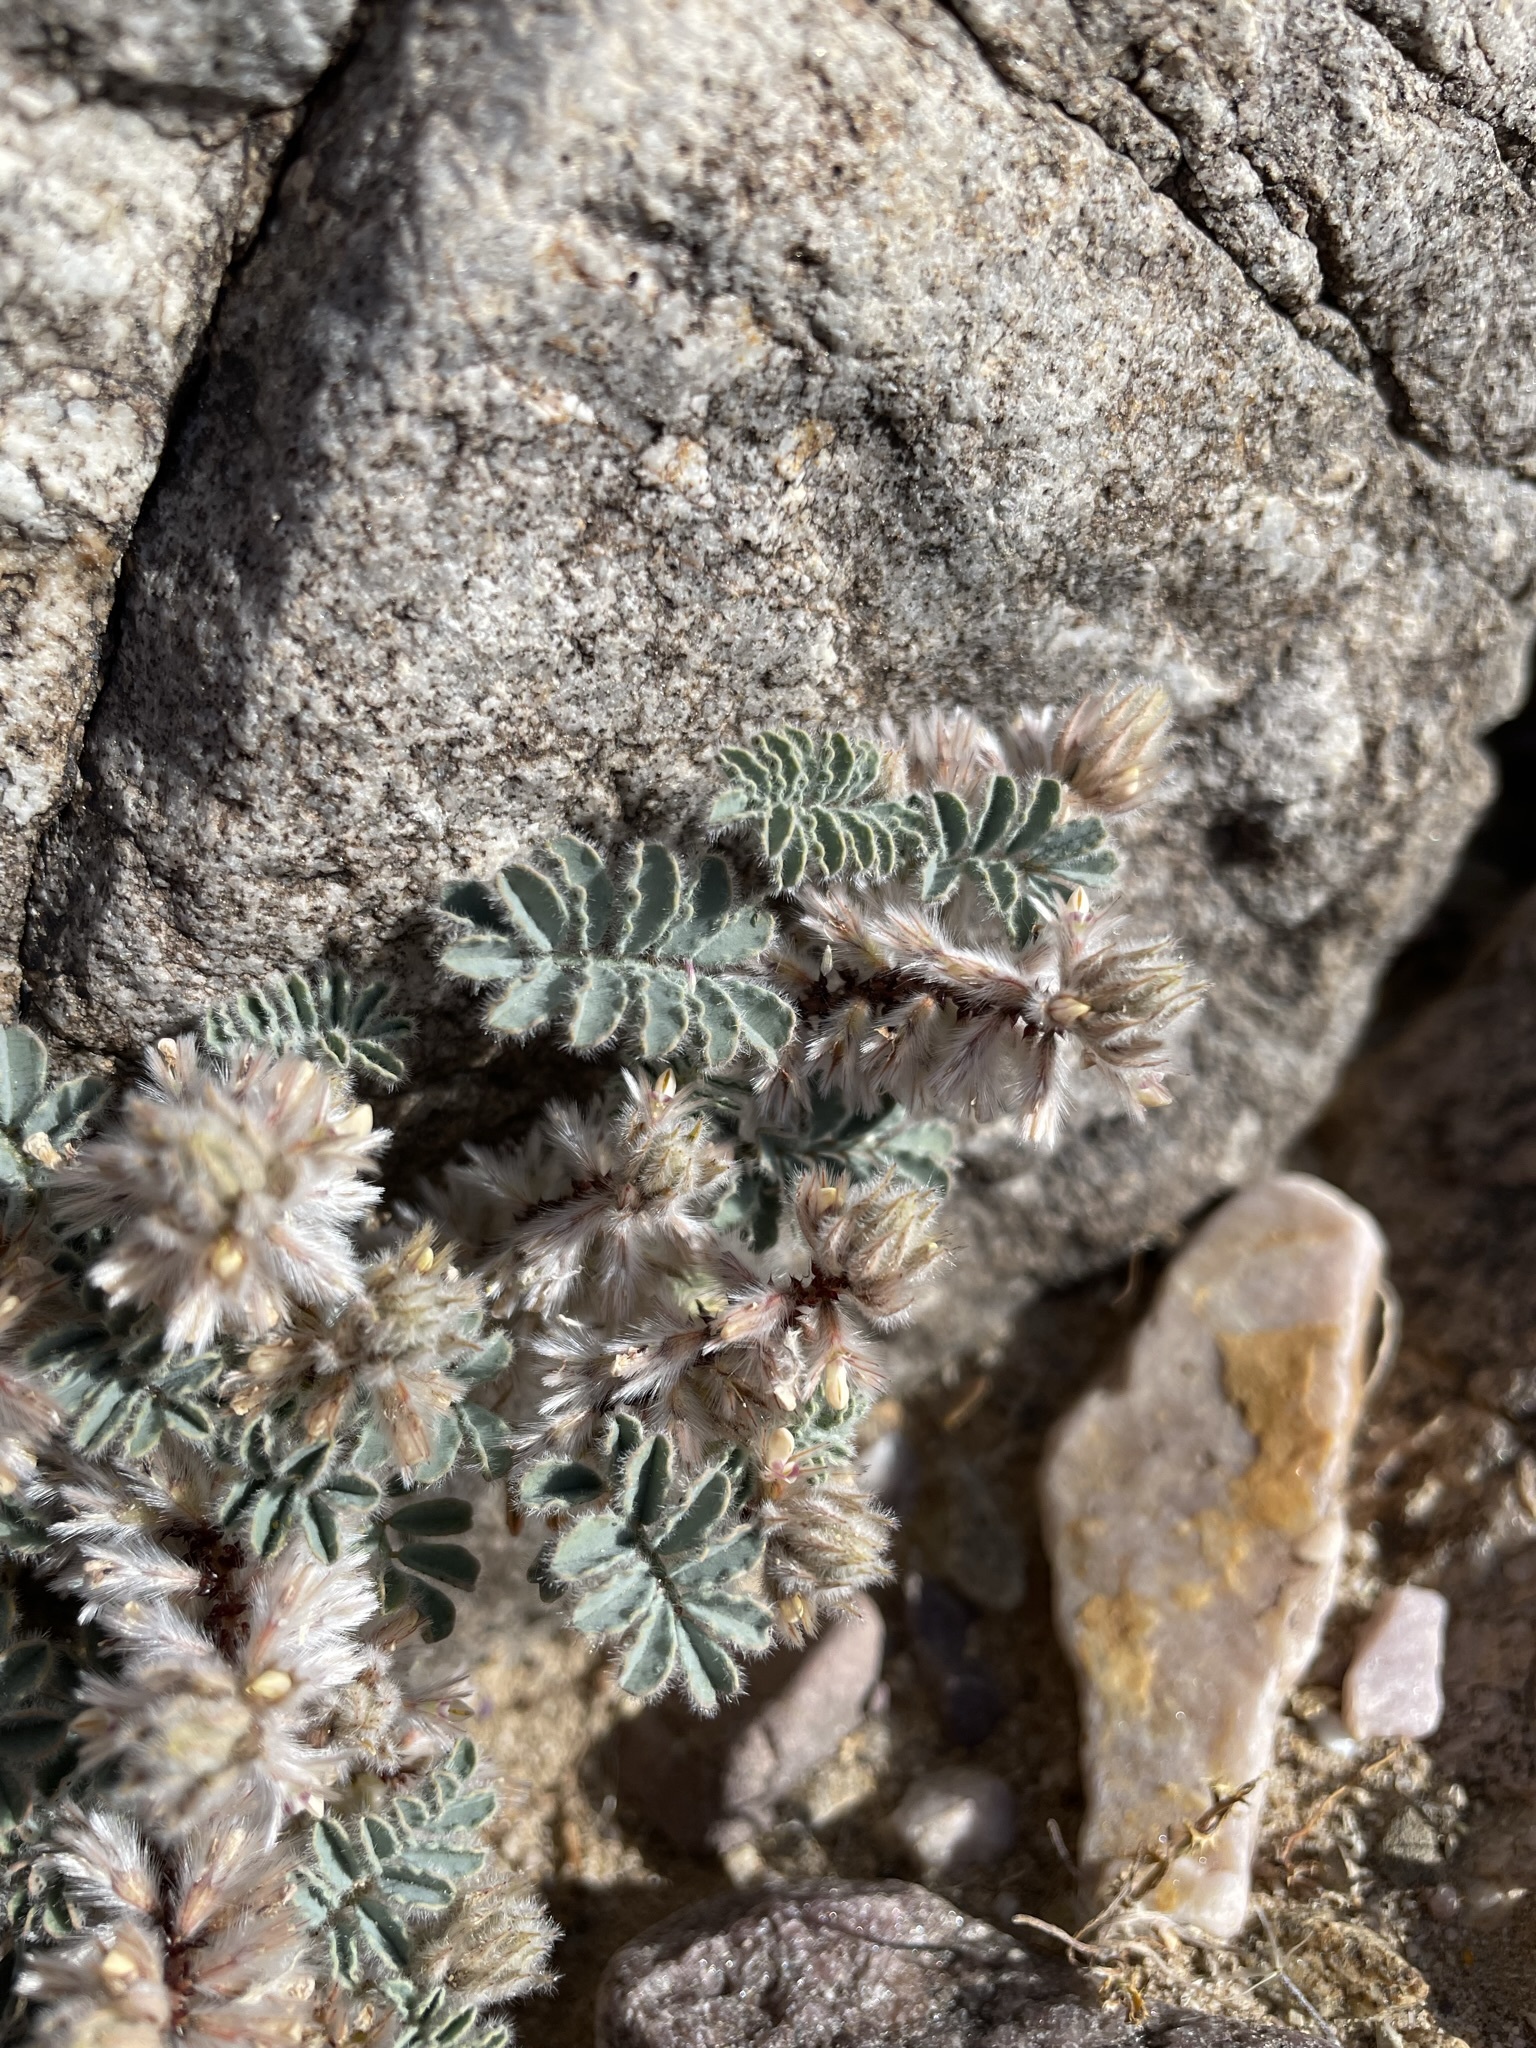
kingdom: Plantae
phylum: Tracheophyta
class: Magnoliopsida
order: Fabales
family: Fabaceae
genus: Dalea
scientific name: Dalea mollissima
